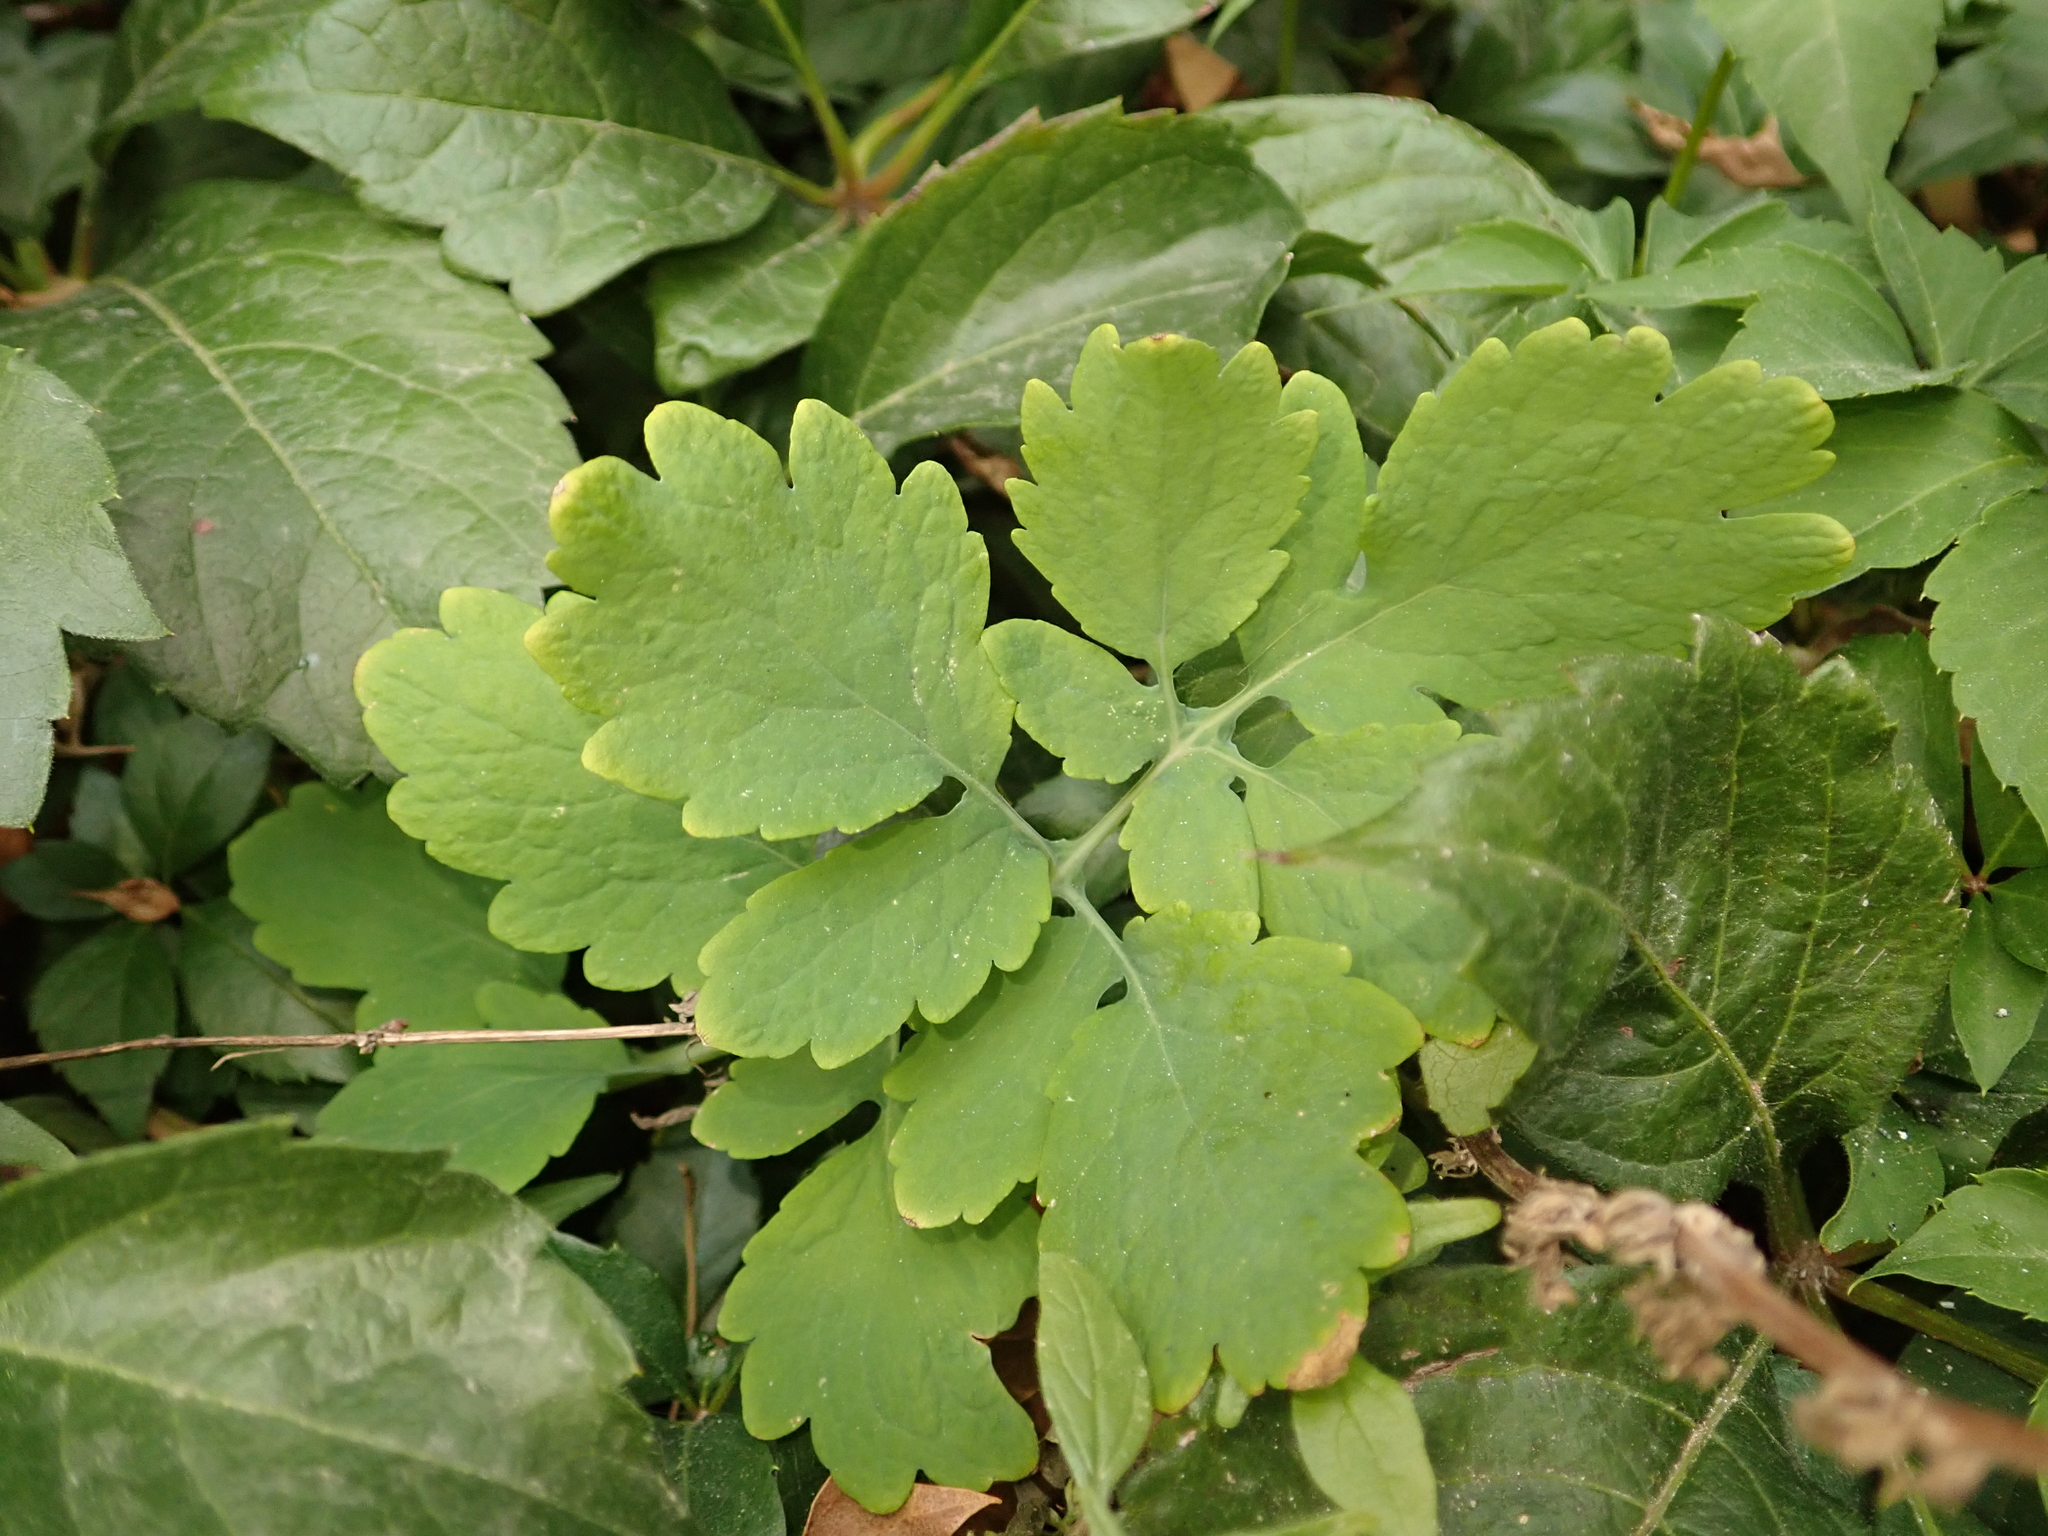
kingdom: Plantae
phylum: Tracheophyta
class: Magnoliopsida
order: Ranunculales
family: Papaveraceae
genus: Chelidonium
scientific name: Chelidonium majus
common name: Greater celandine
